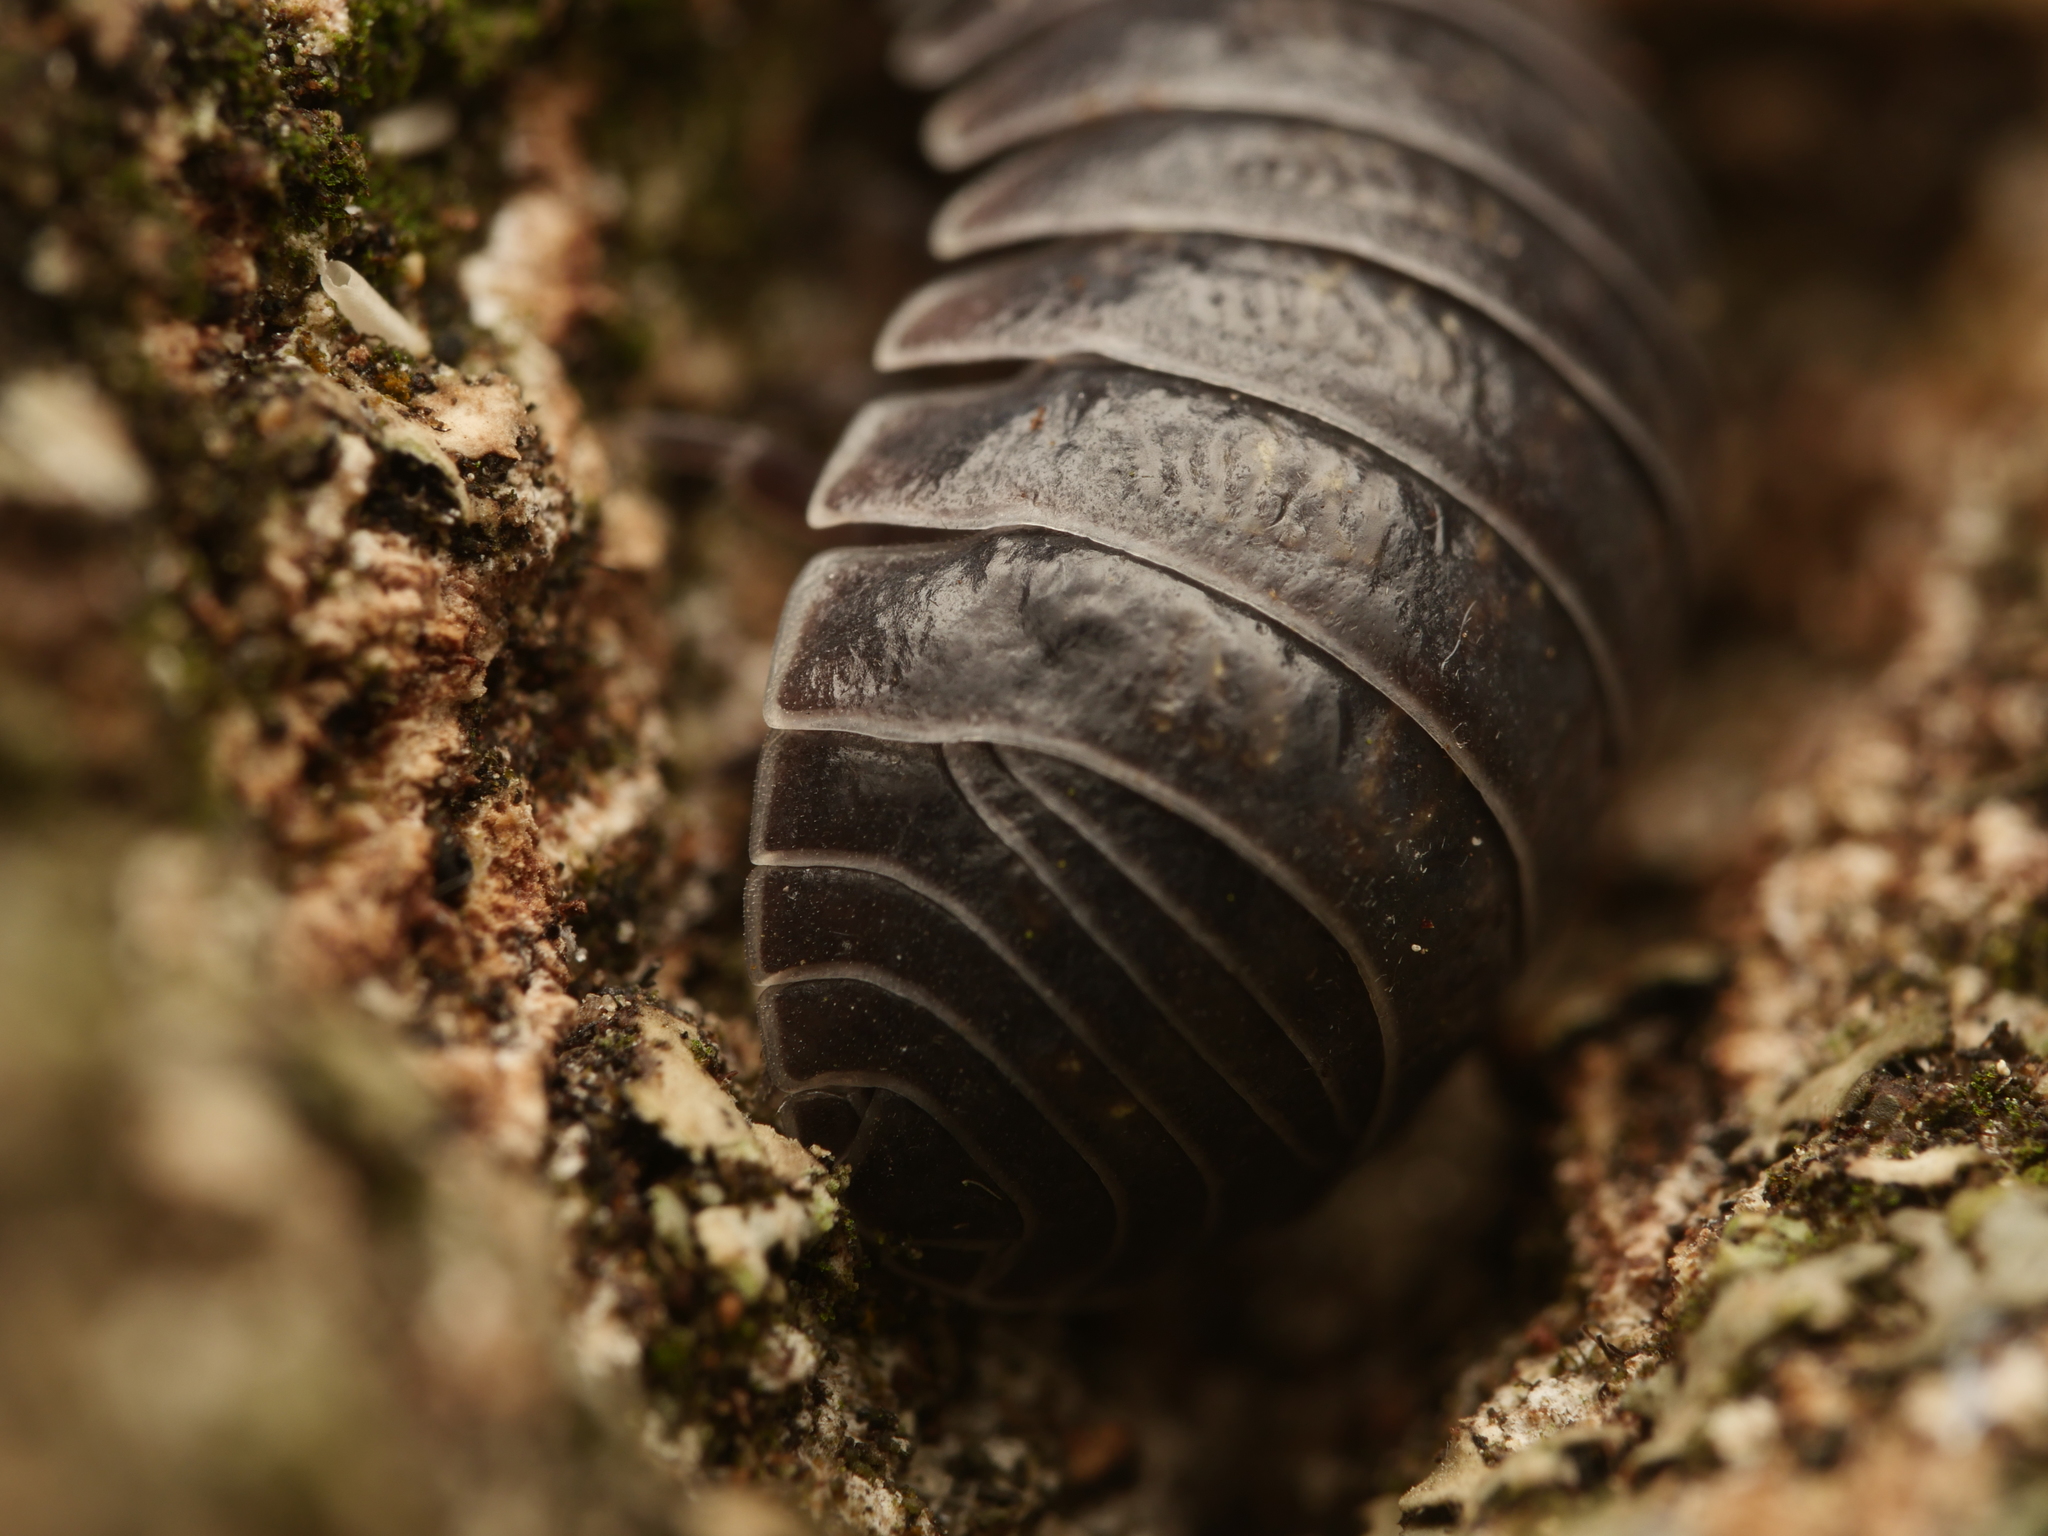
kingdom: Animalia
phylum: Arthropoda
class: Malacostraca
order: Isopoda
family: Armadillidiidae
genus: Armadillidium
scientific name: Armadillidium vulgare
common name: Common pill woodlouse
